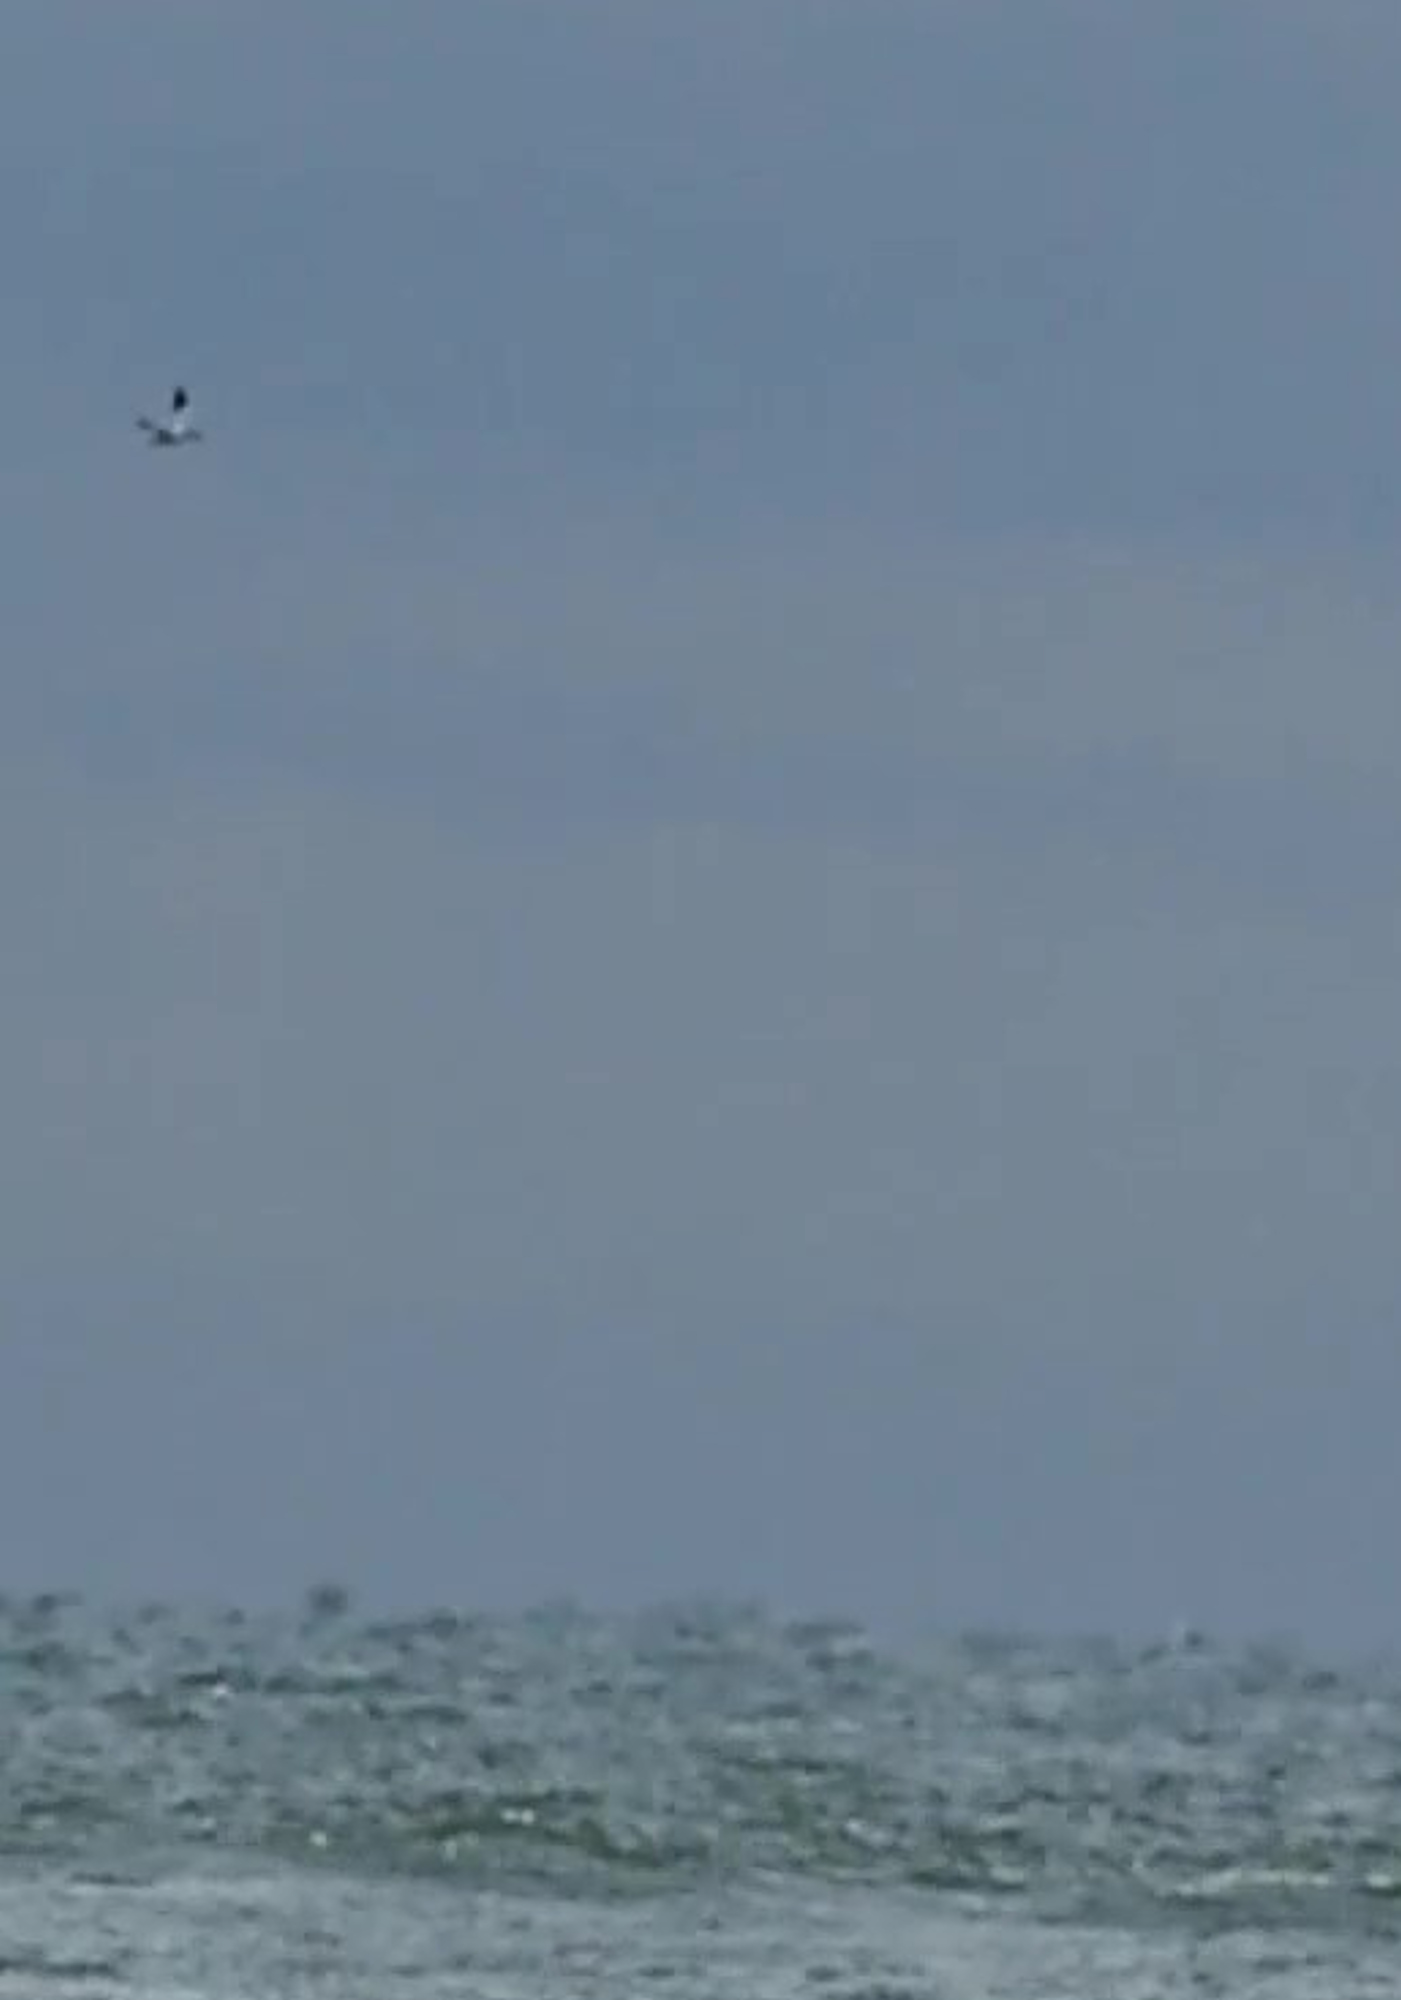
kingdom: Animalia
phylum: Chordata
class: Aves
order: Suliformes
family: Sulidae
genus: Morus
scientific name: Morus bassanus
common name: Northern gannet
